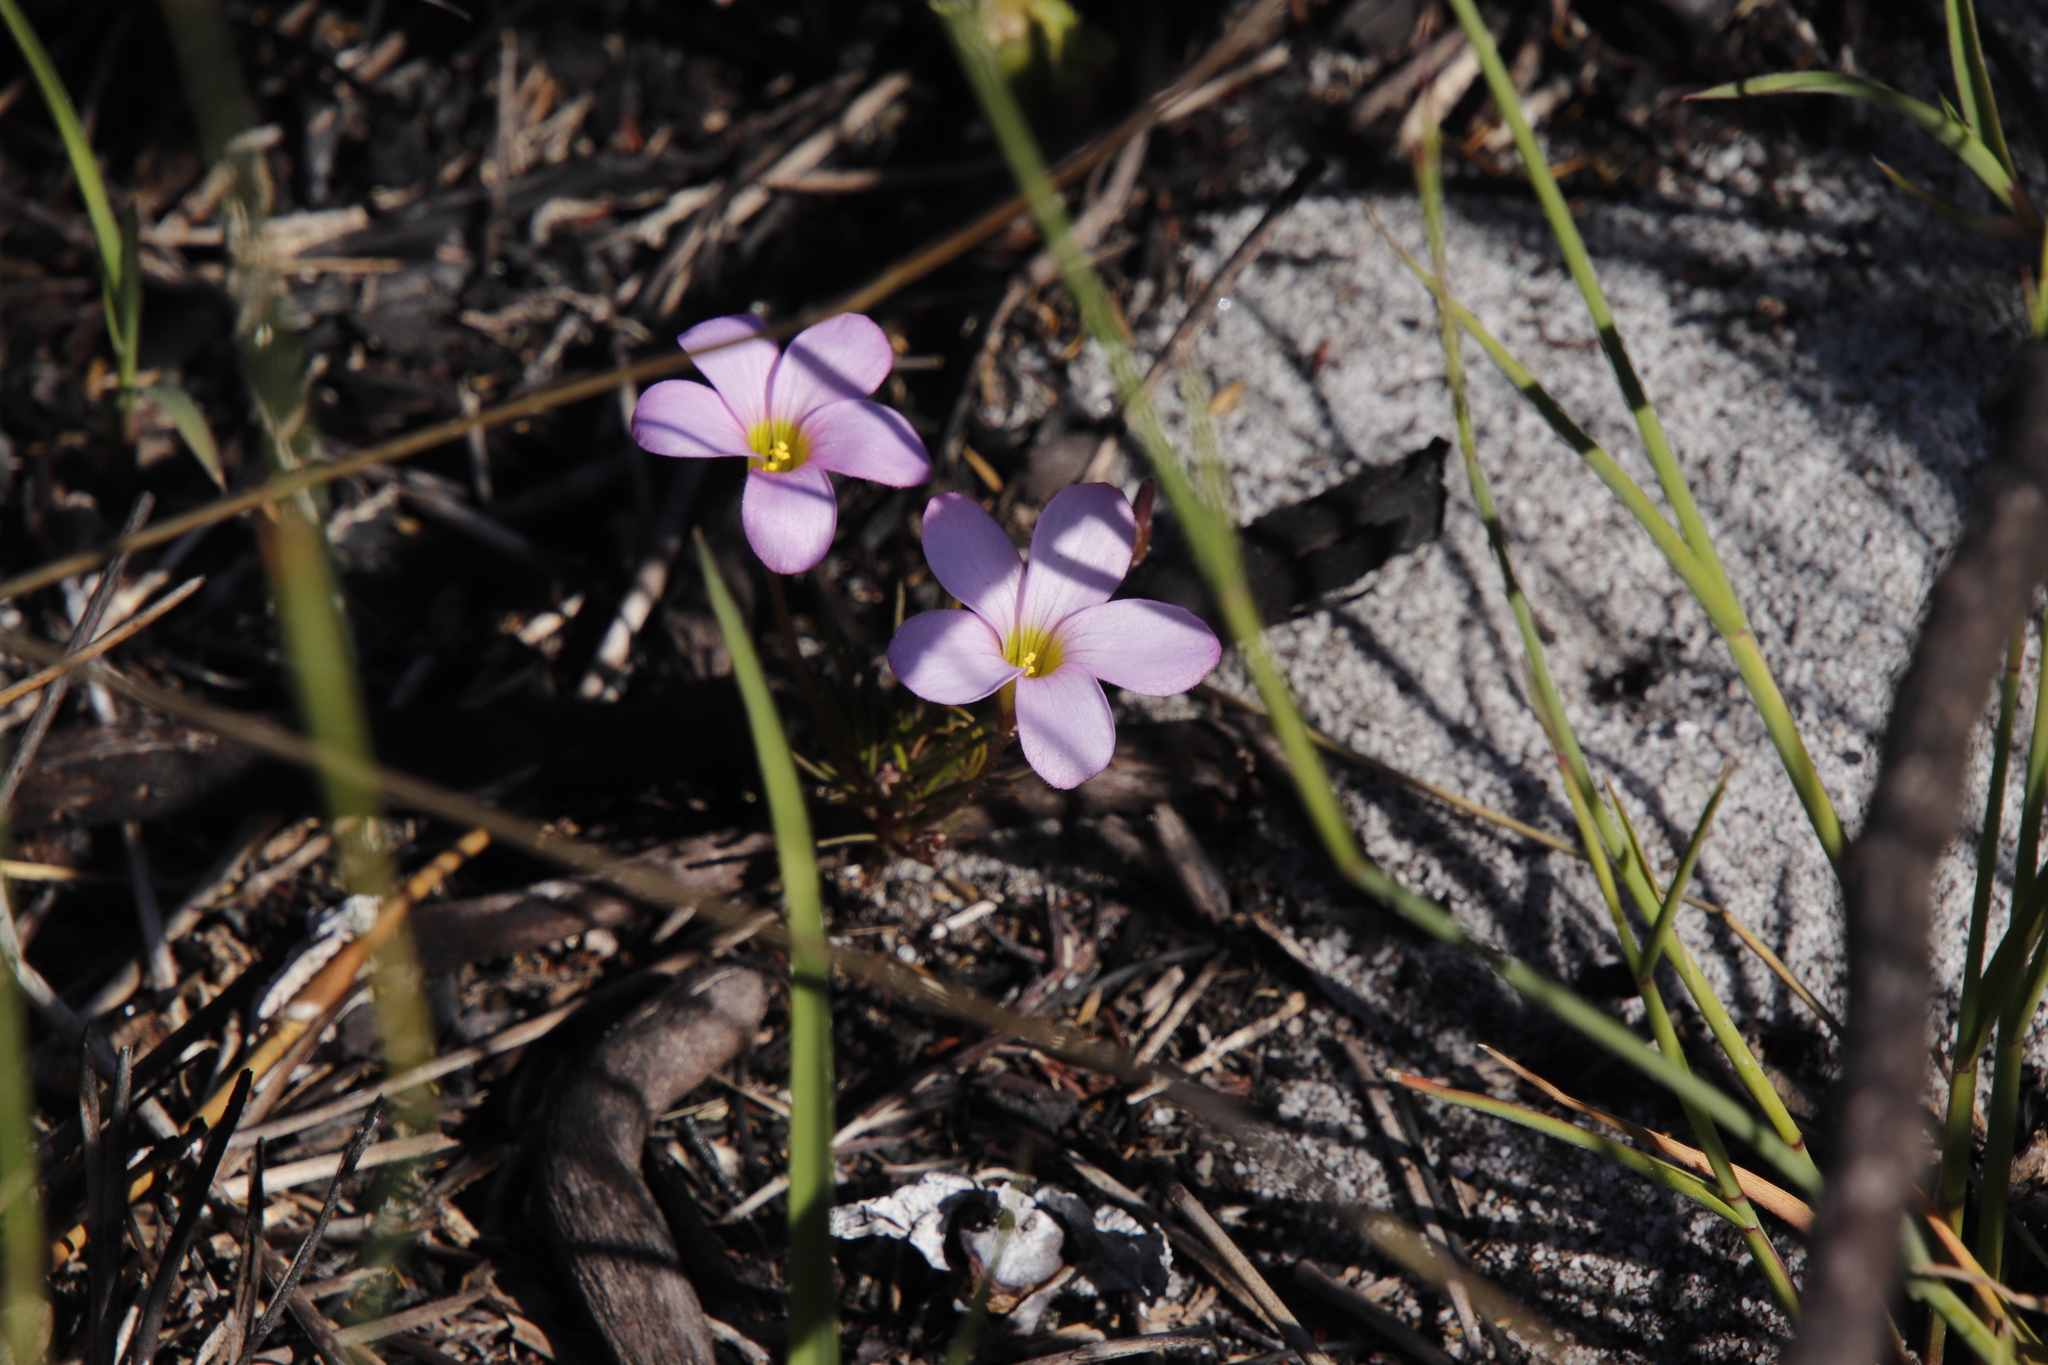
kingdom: Plantae
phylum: Tracheophyta
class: Magnoliopsida
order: Oxalidales
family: Oxalidaceae
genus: Oxalis
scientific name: Oxalis polyphylla
